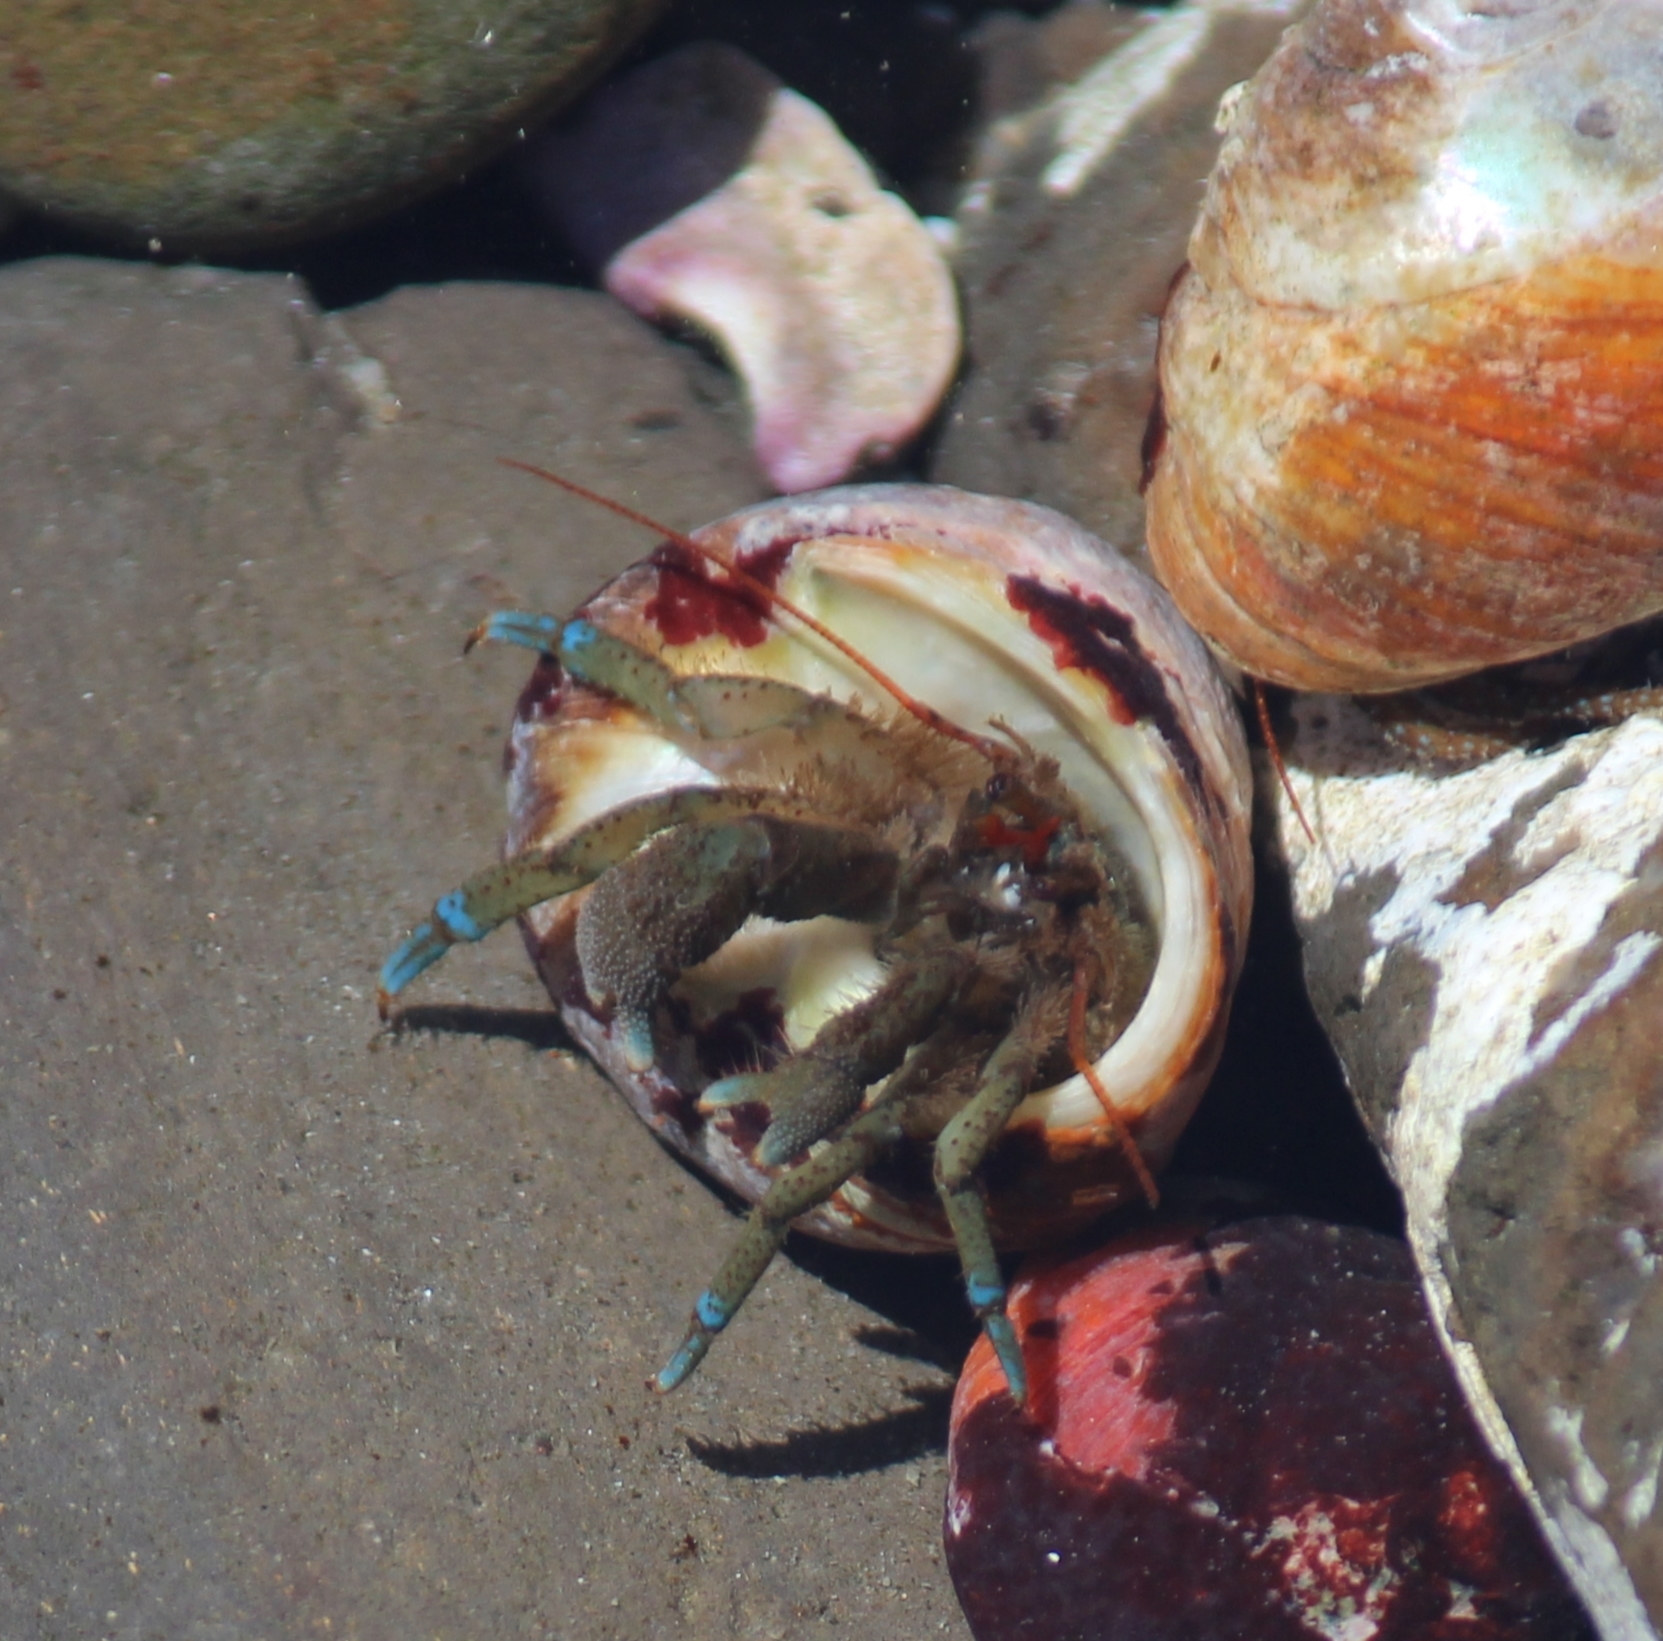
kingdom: Animalia
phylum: Arthropoda
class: Malacostraca
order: Decapoda
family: Paguridae
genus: Pagurus
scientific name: Pagurus samuelis
